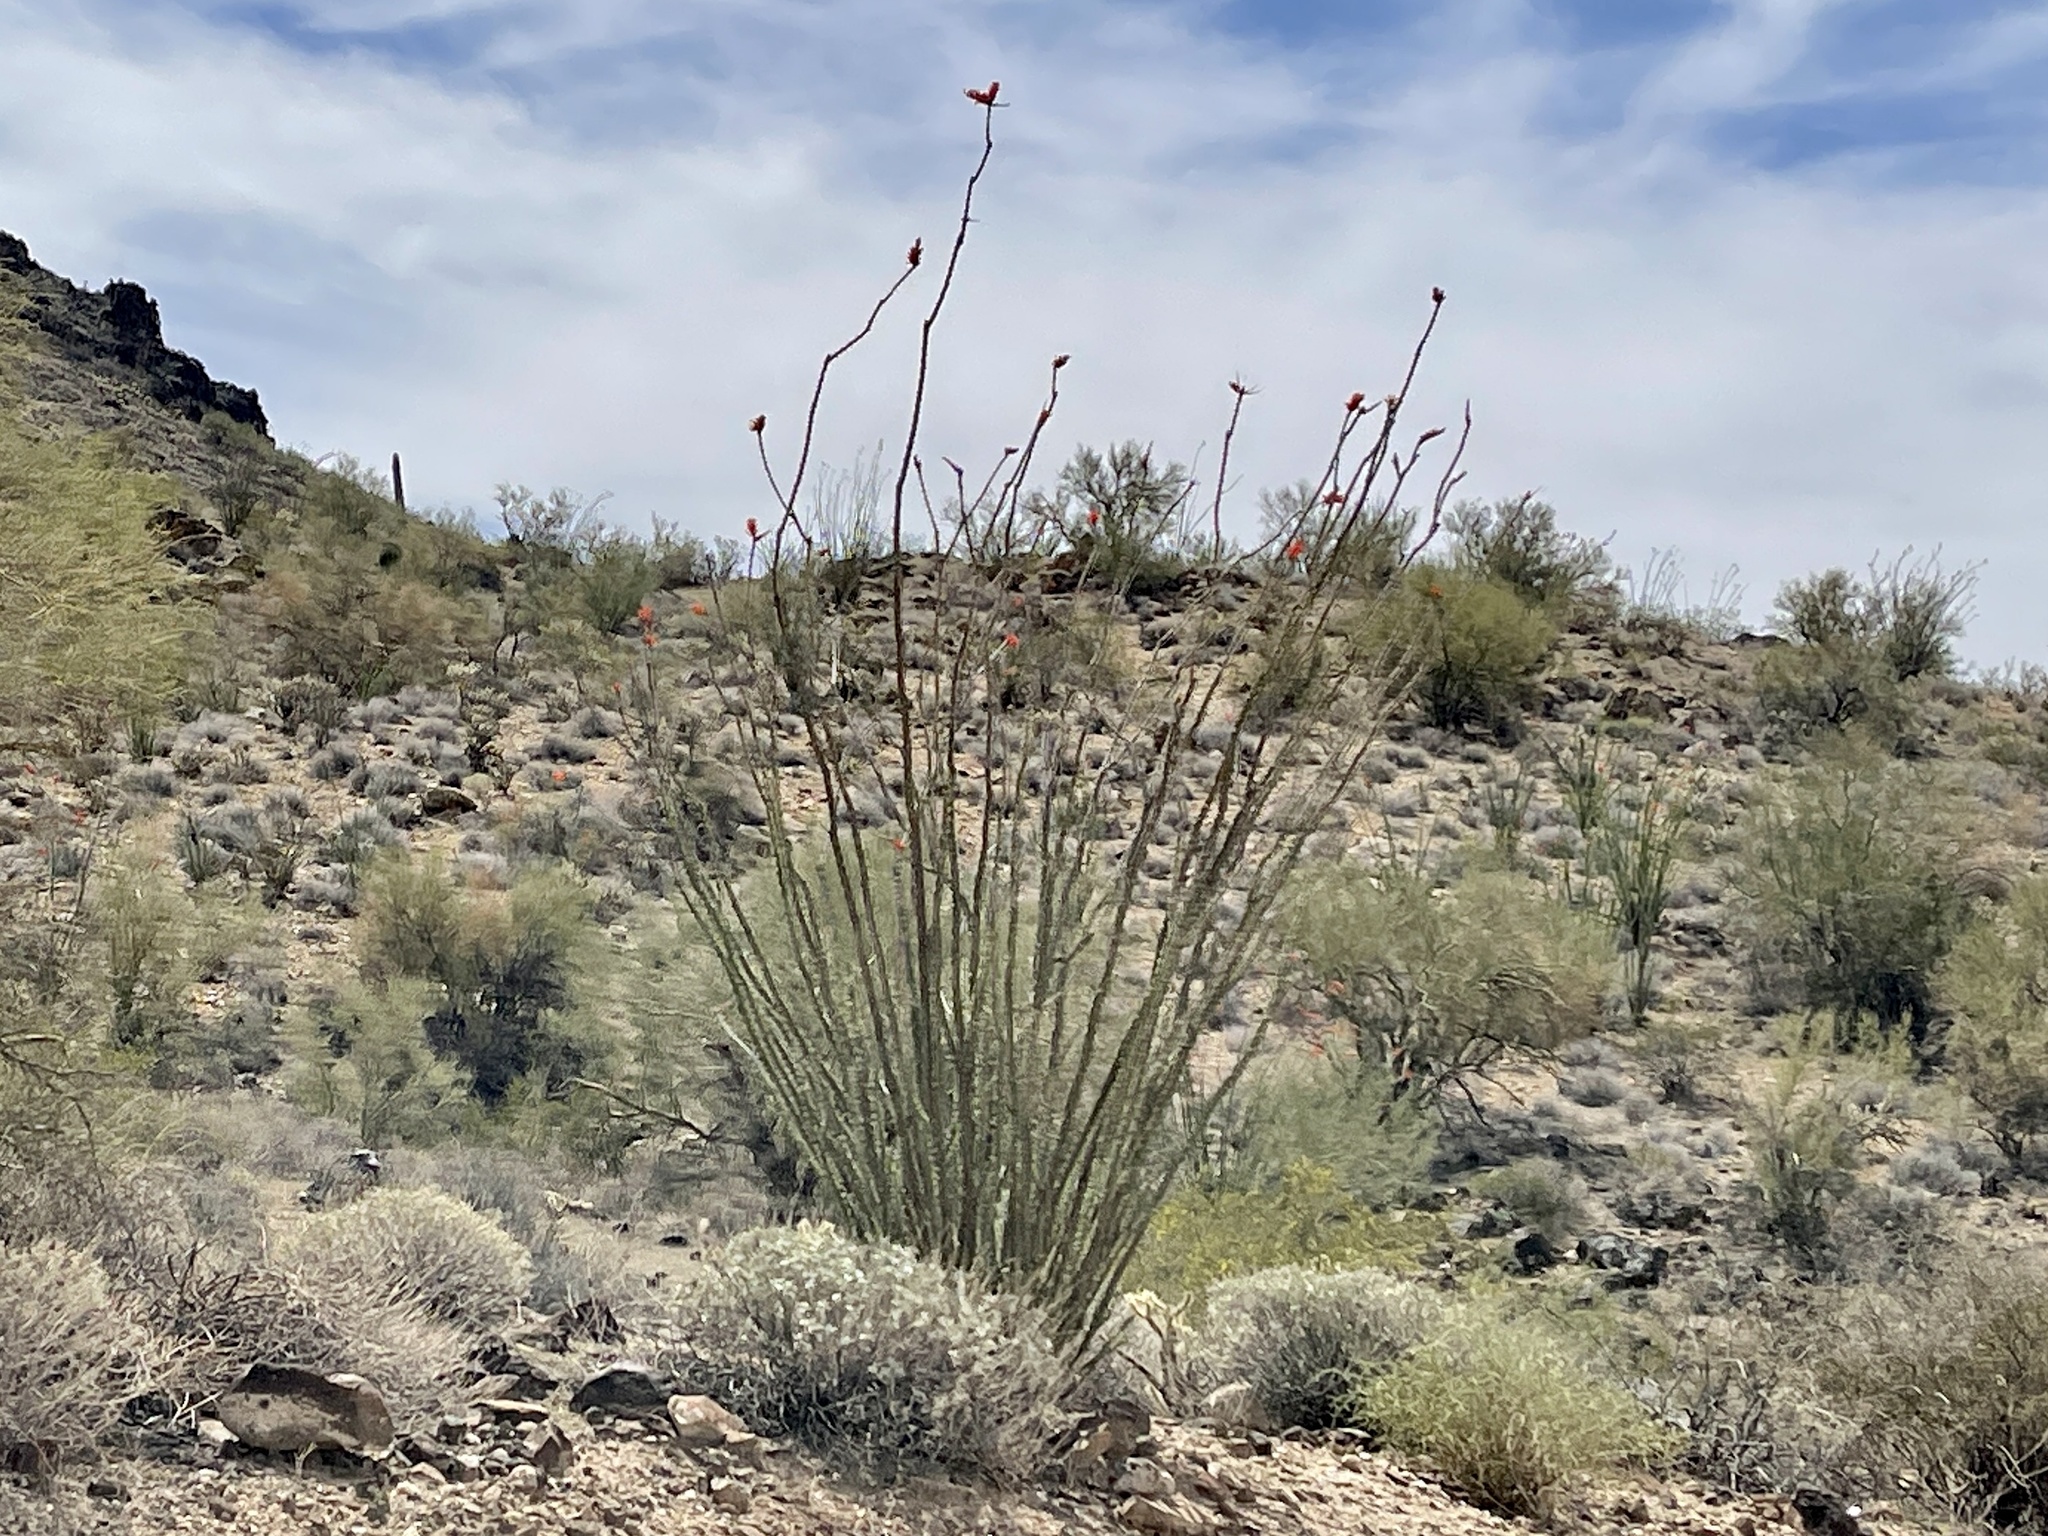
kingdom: Plantae
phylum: Tracheophyta
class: Magnoliopsida
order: Ericales
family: Fouquieriaceae
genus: Fouquieria
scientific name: Fouquieria splendens
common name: Vine-cactus
